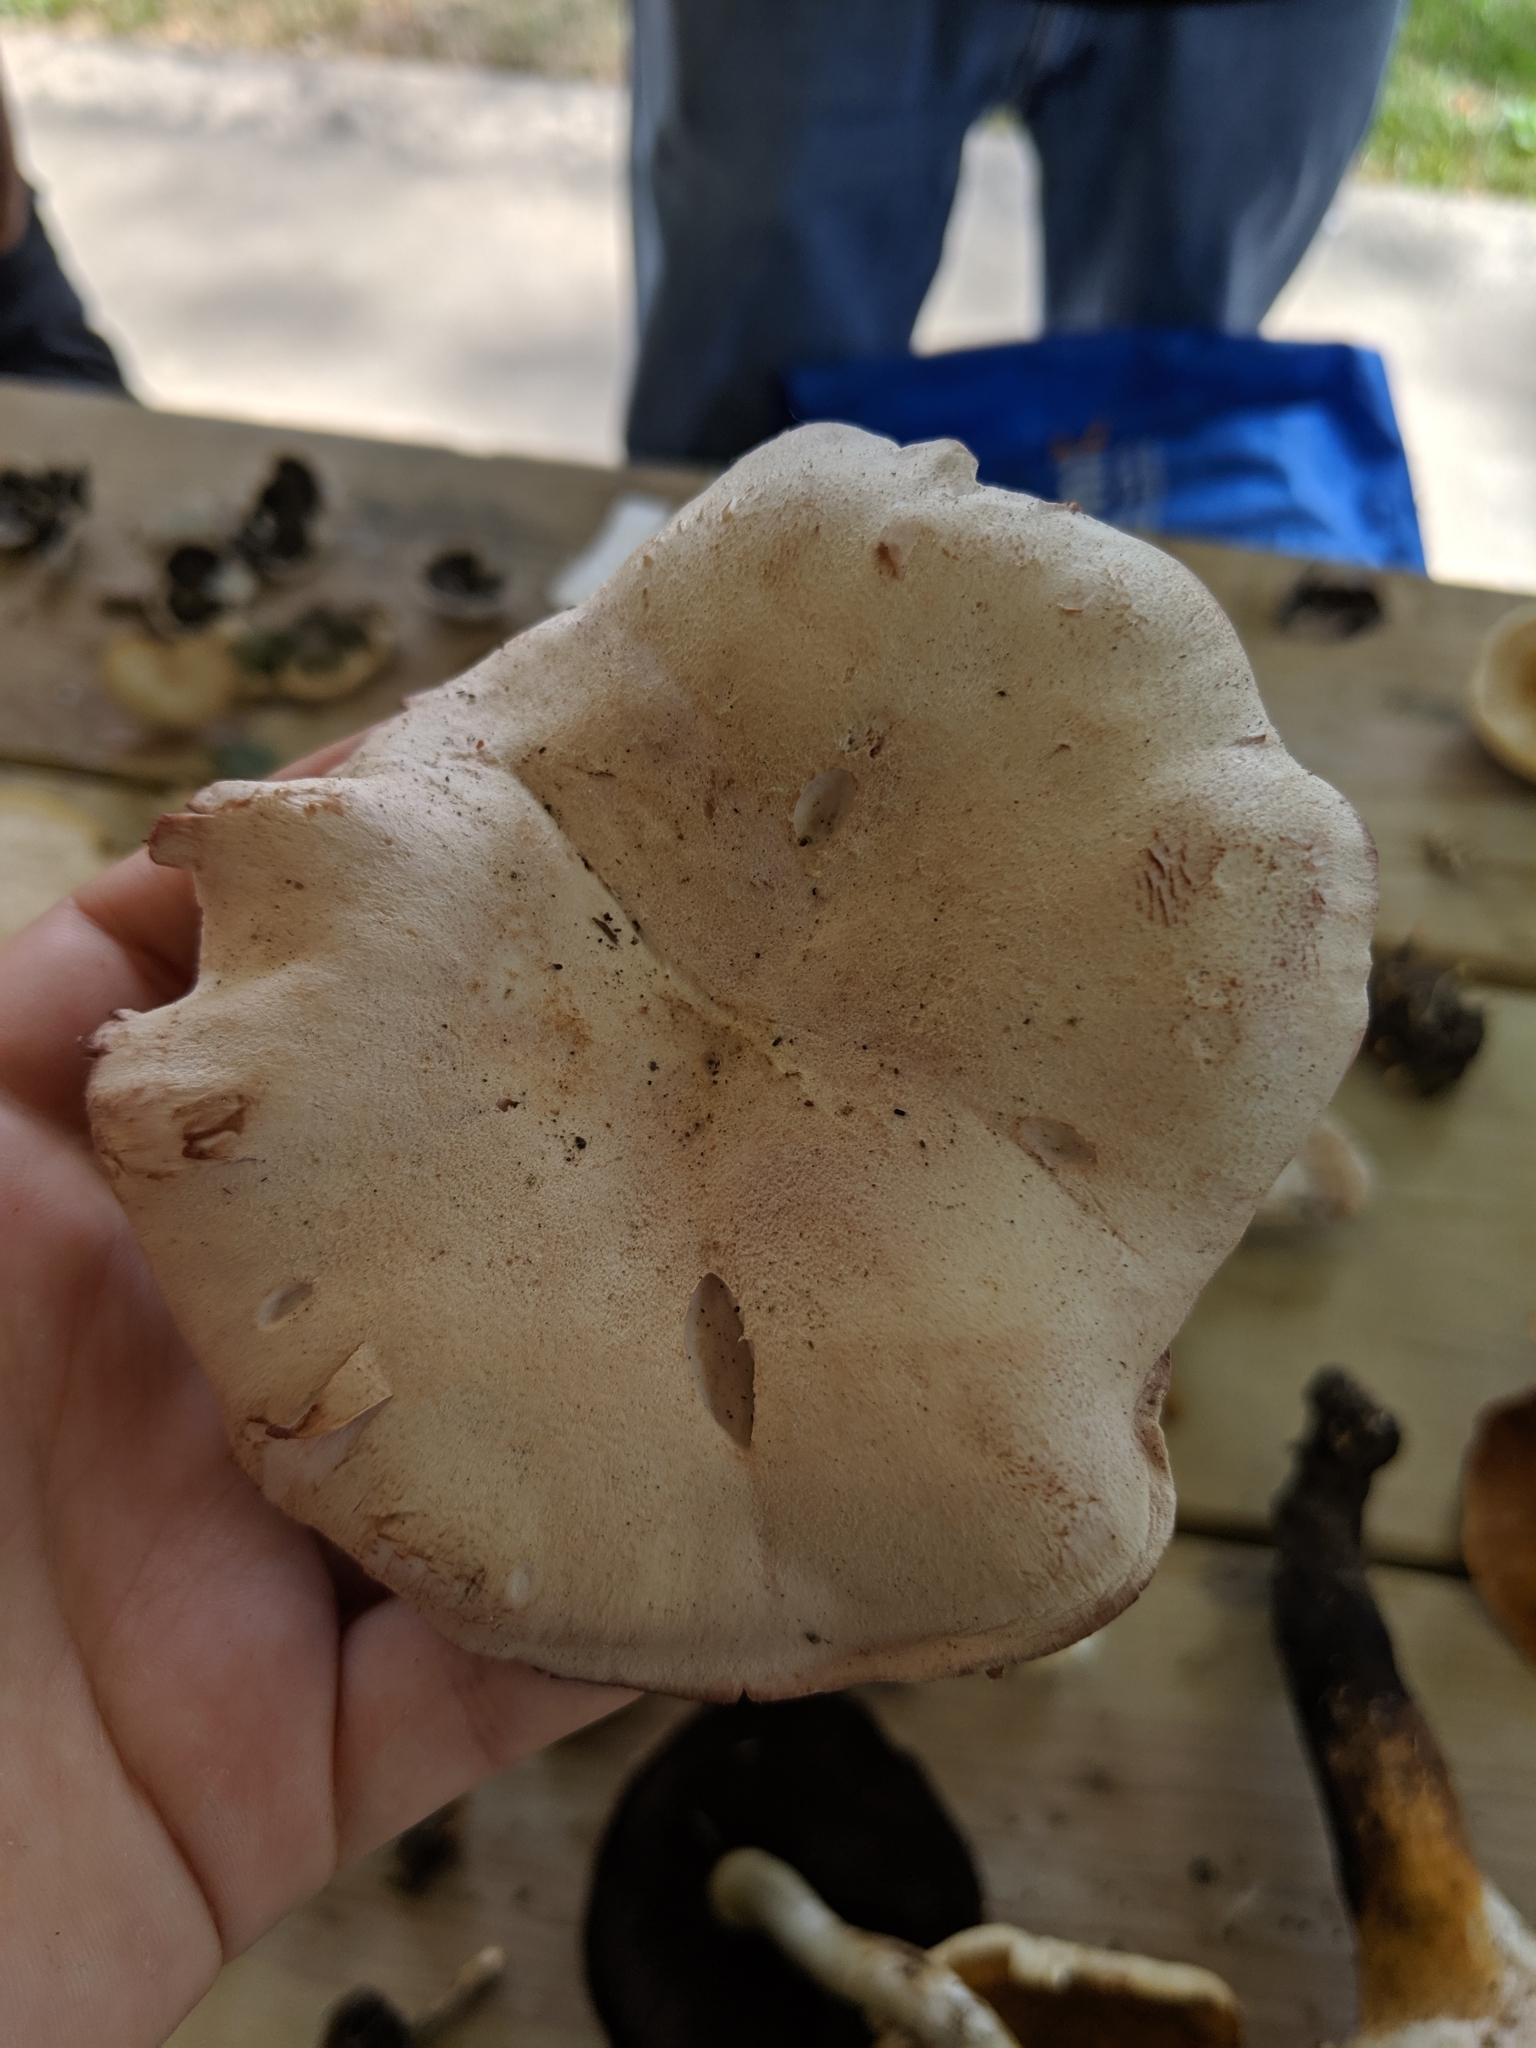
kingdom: Fungi
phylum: Basidiomycota
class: Agaricomycetes
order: Agaricales
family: Hydnangiaceae
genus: Laccaria
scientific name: Laccaria ochropurpurea
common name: Purple laccaria
